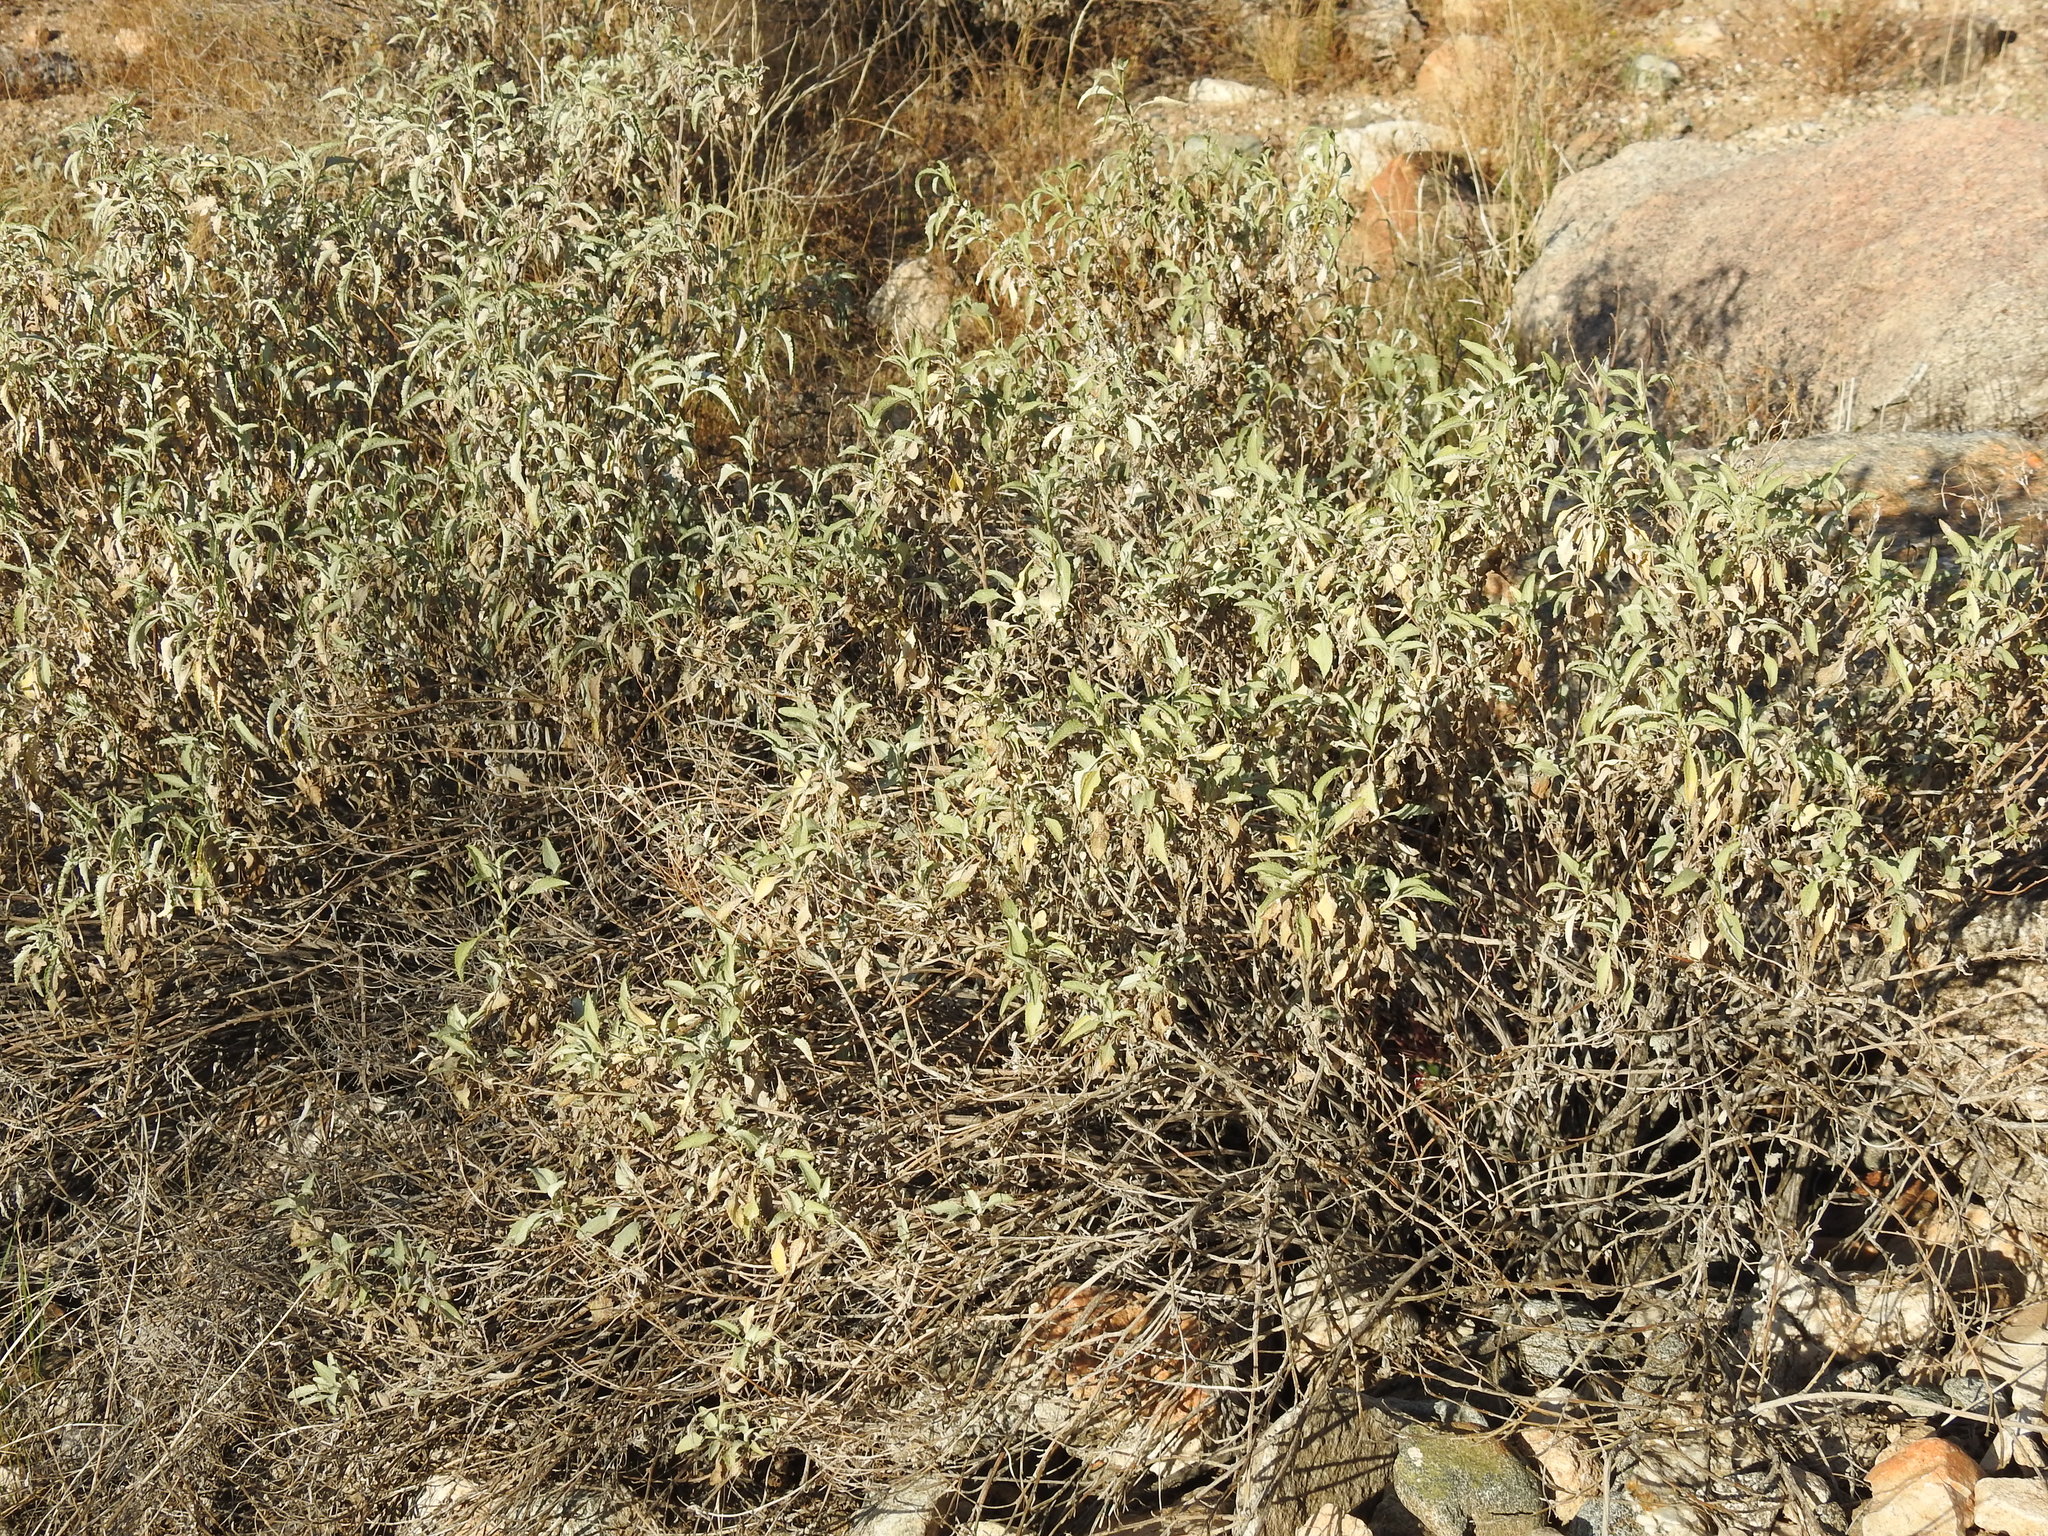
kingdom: Plantae
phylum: Tracheophyta
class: Magnoliopsida
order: Asterales
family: Asteraceae
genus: Ambrosia
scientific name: Ambrosia deltoidea
